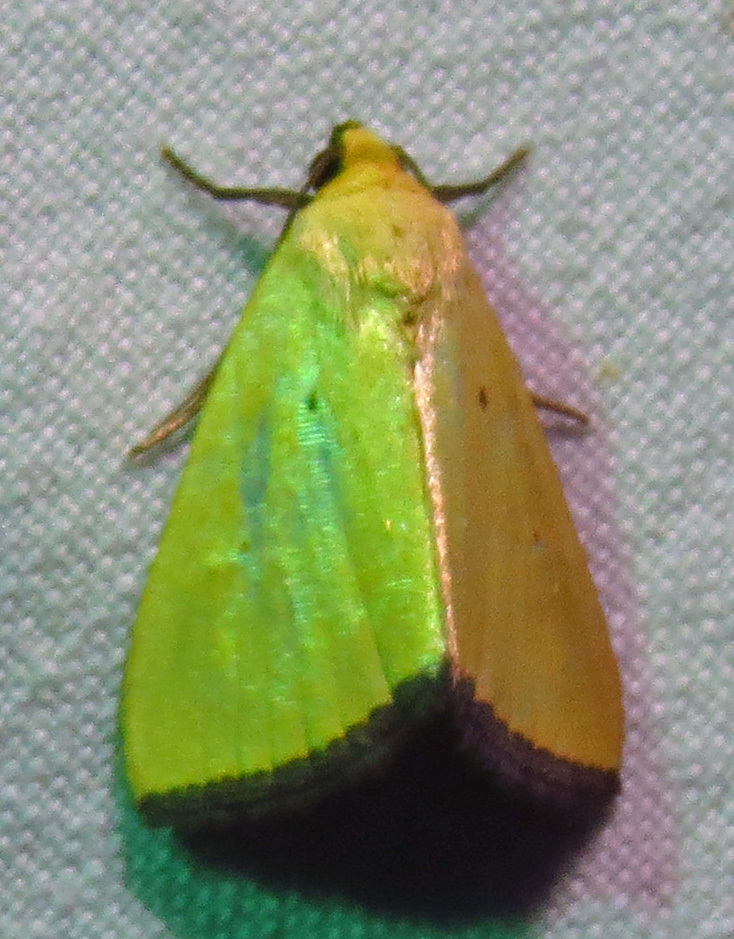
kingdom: Animalia
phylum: Arthropoda
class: Insecta
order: Lepidoptera
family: Noctuidae
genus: Marimatha
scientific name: Marimatha nigrofimbria
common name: Black-bordered lemon moth
